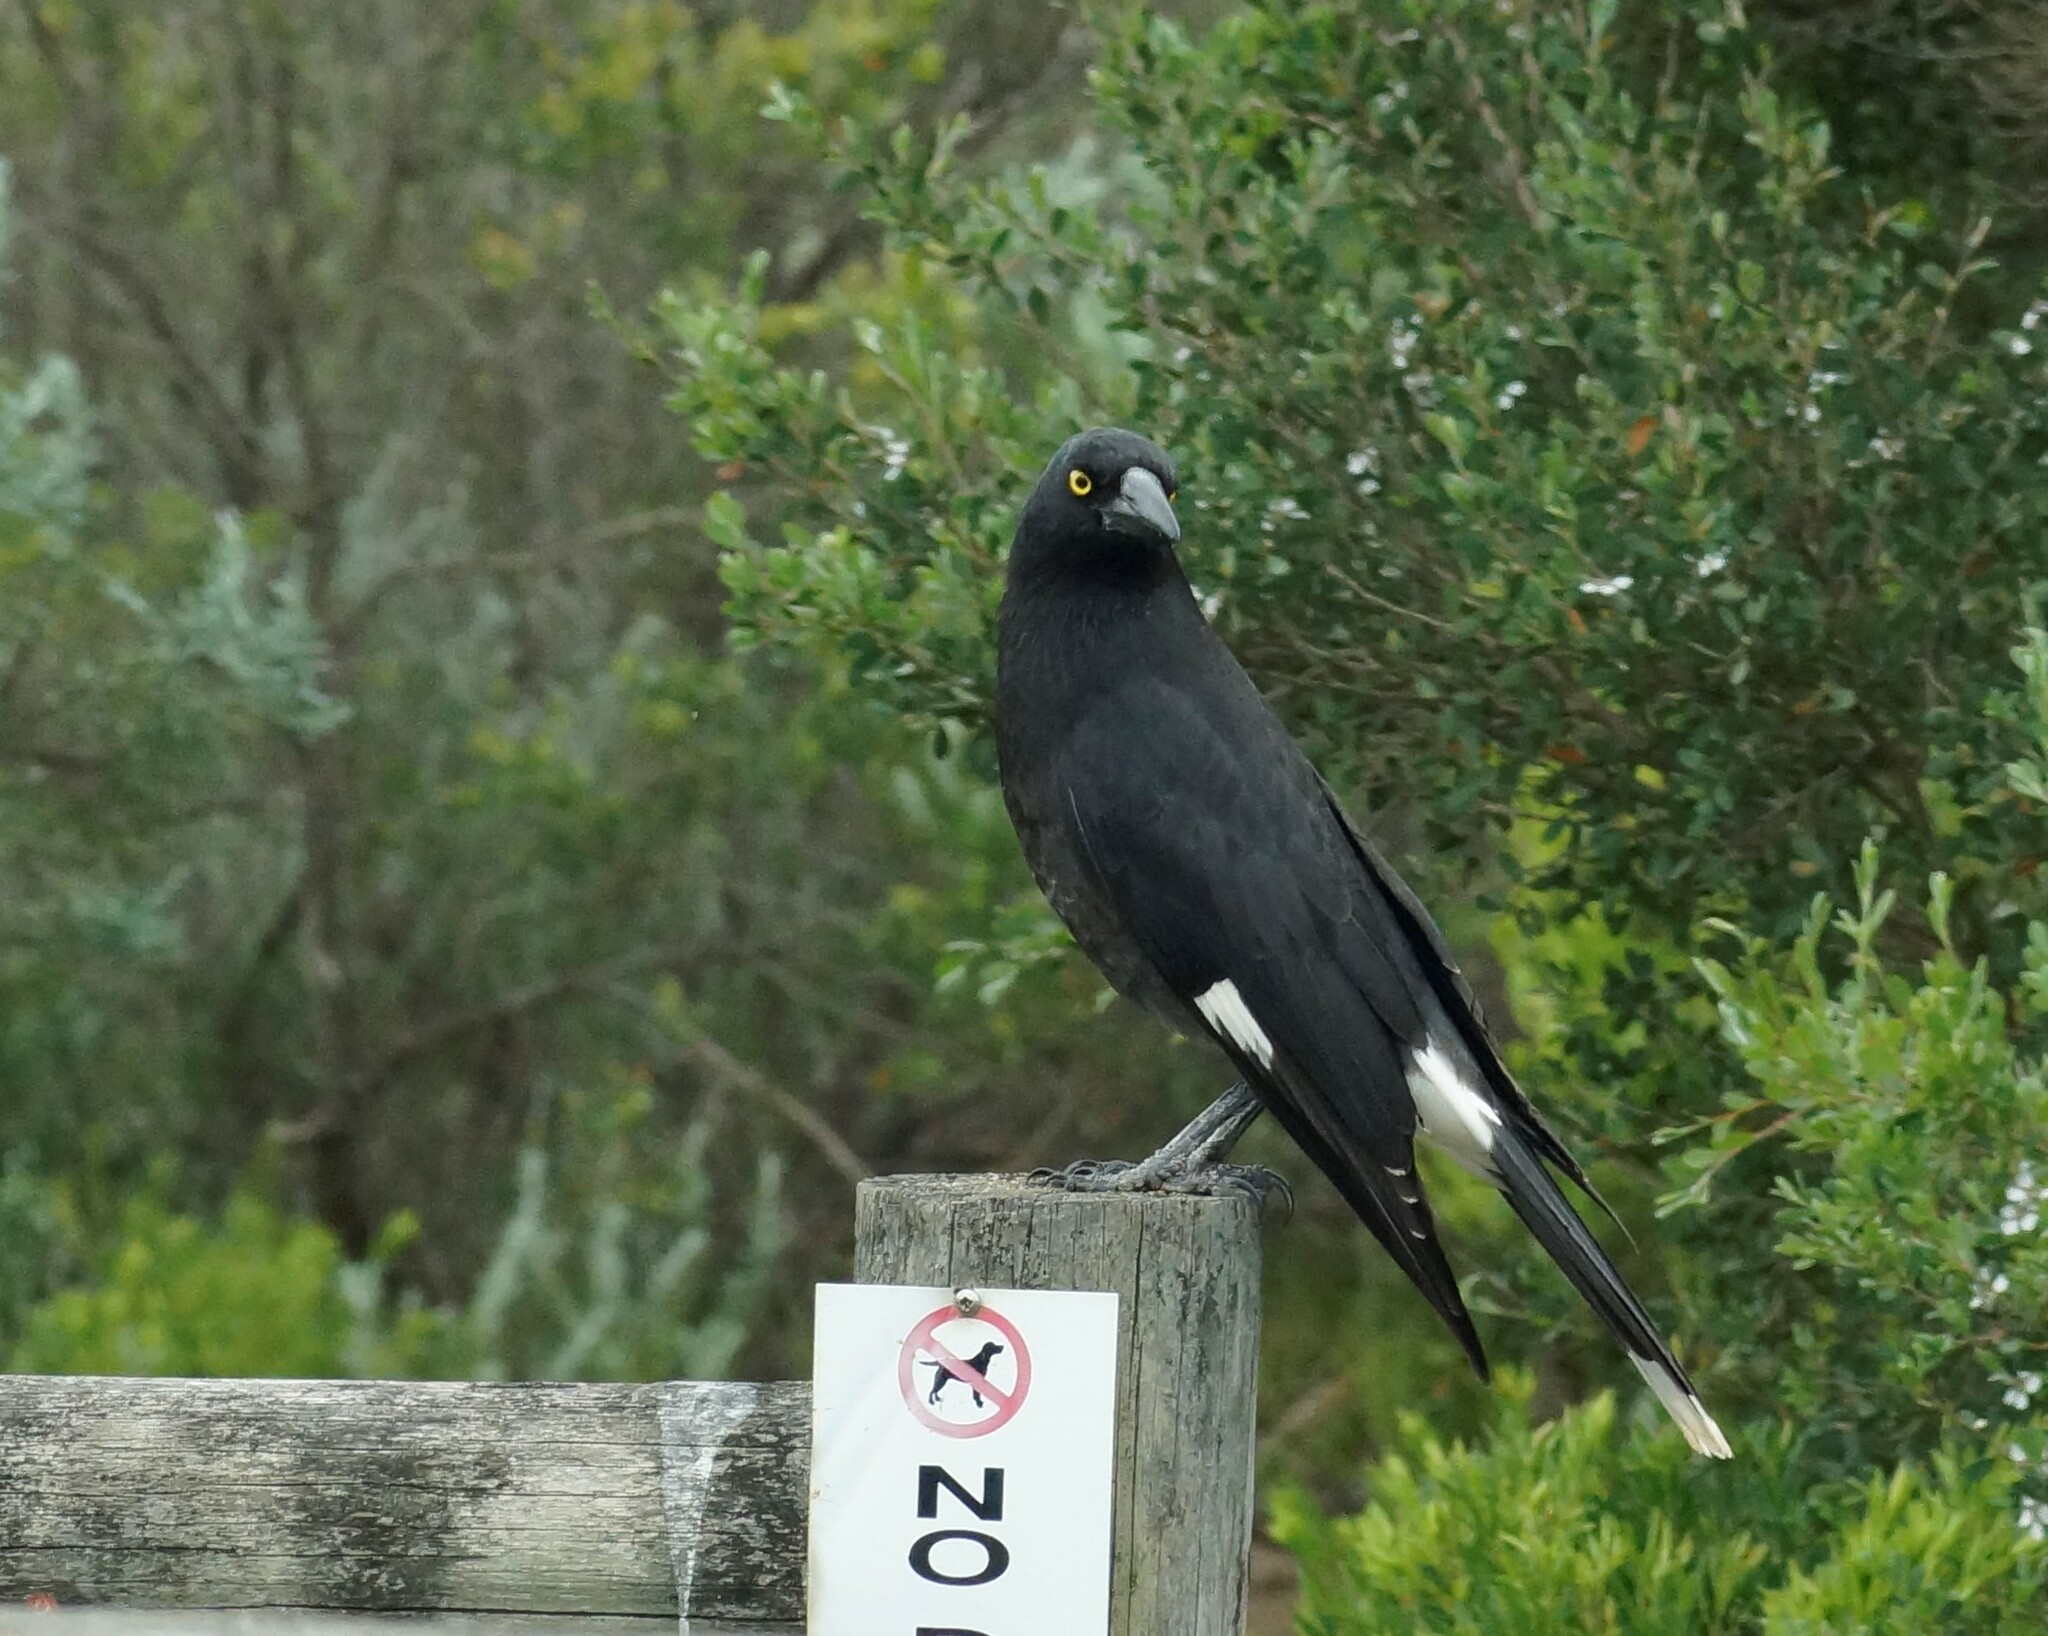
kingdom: Animalia
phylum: Chordata
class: Aves
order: Passeriformes
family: Cracticidae
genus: Strepera
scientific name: Strepera graculina
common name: Pied currawong
